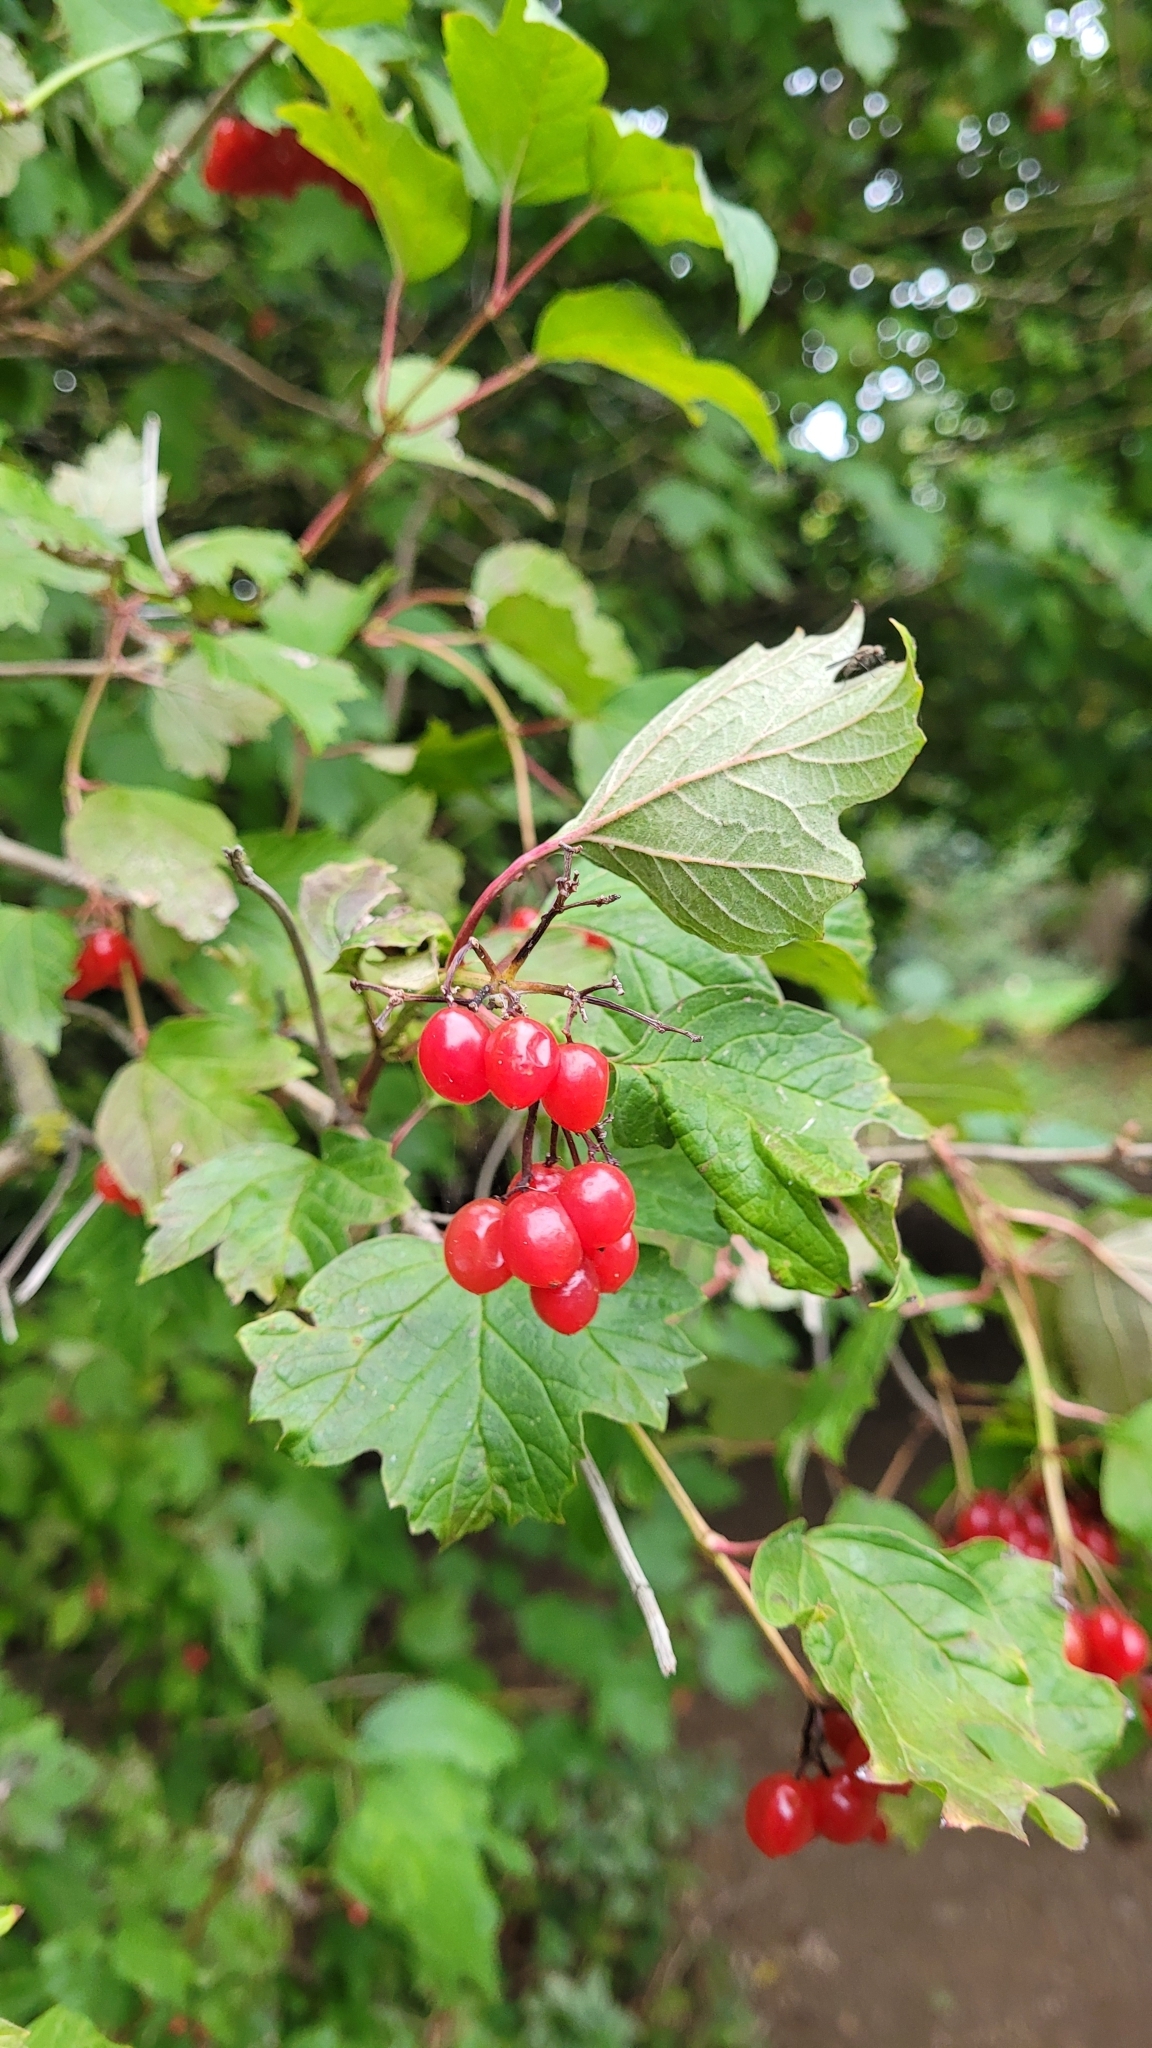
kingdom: Plantae
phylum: Tracheophyta
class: Magnoliopsida
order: Dipsacales
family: Viburnaceae
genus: Viburnum
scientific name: Viburnum opulus
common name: Guelder-rose
